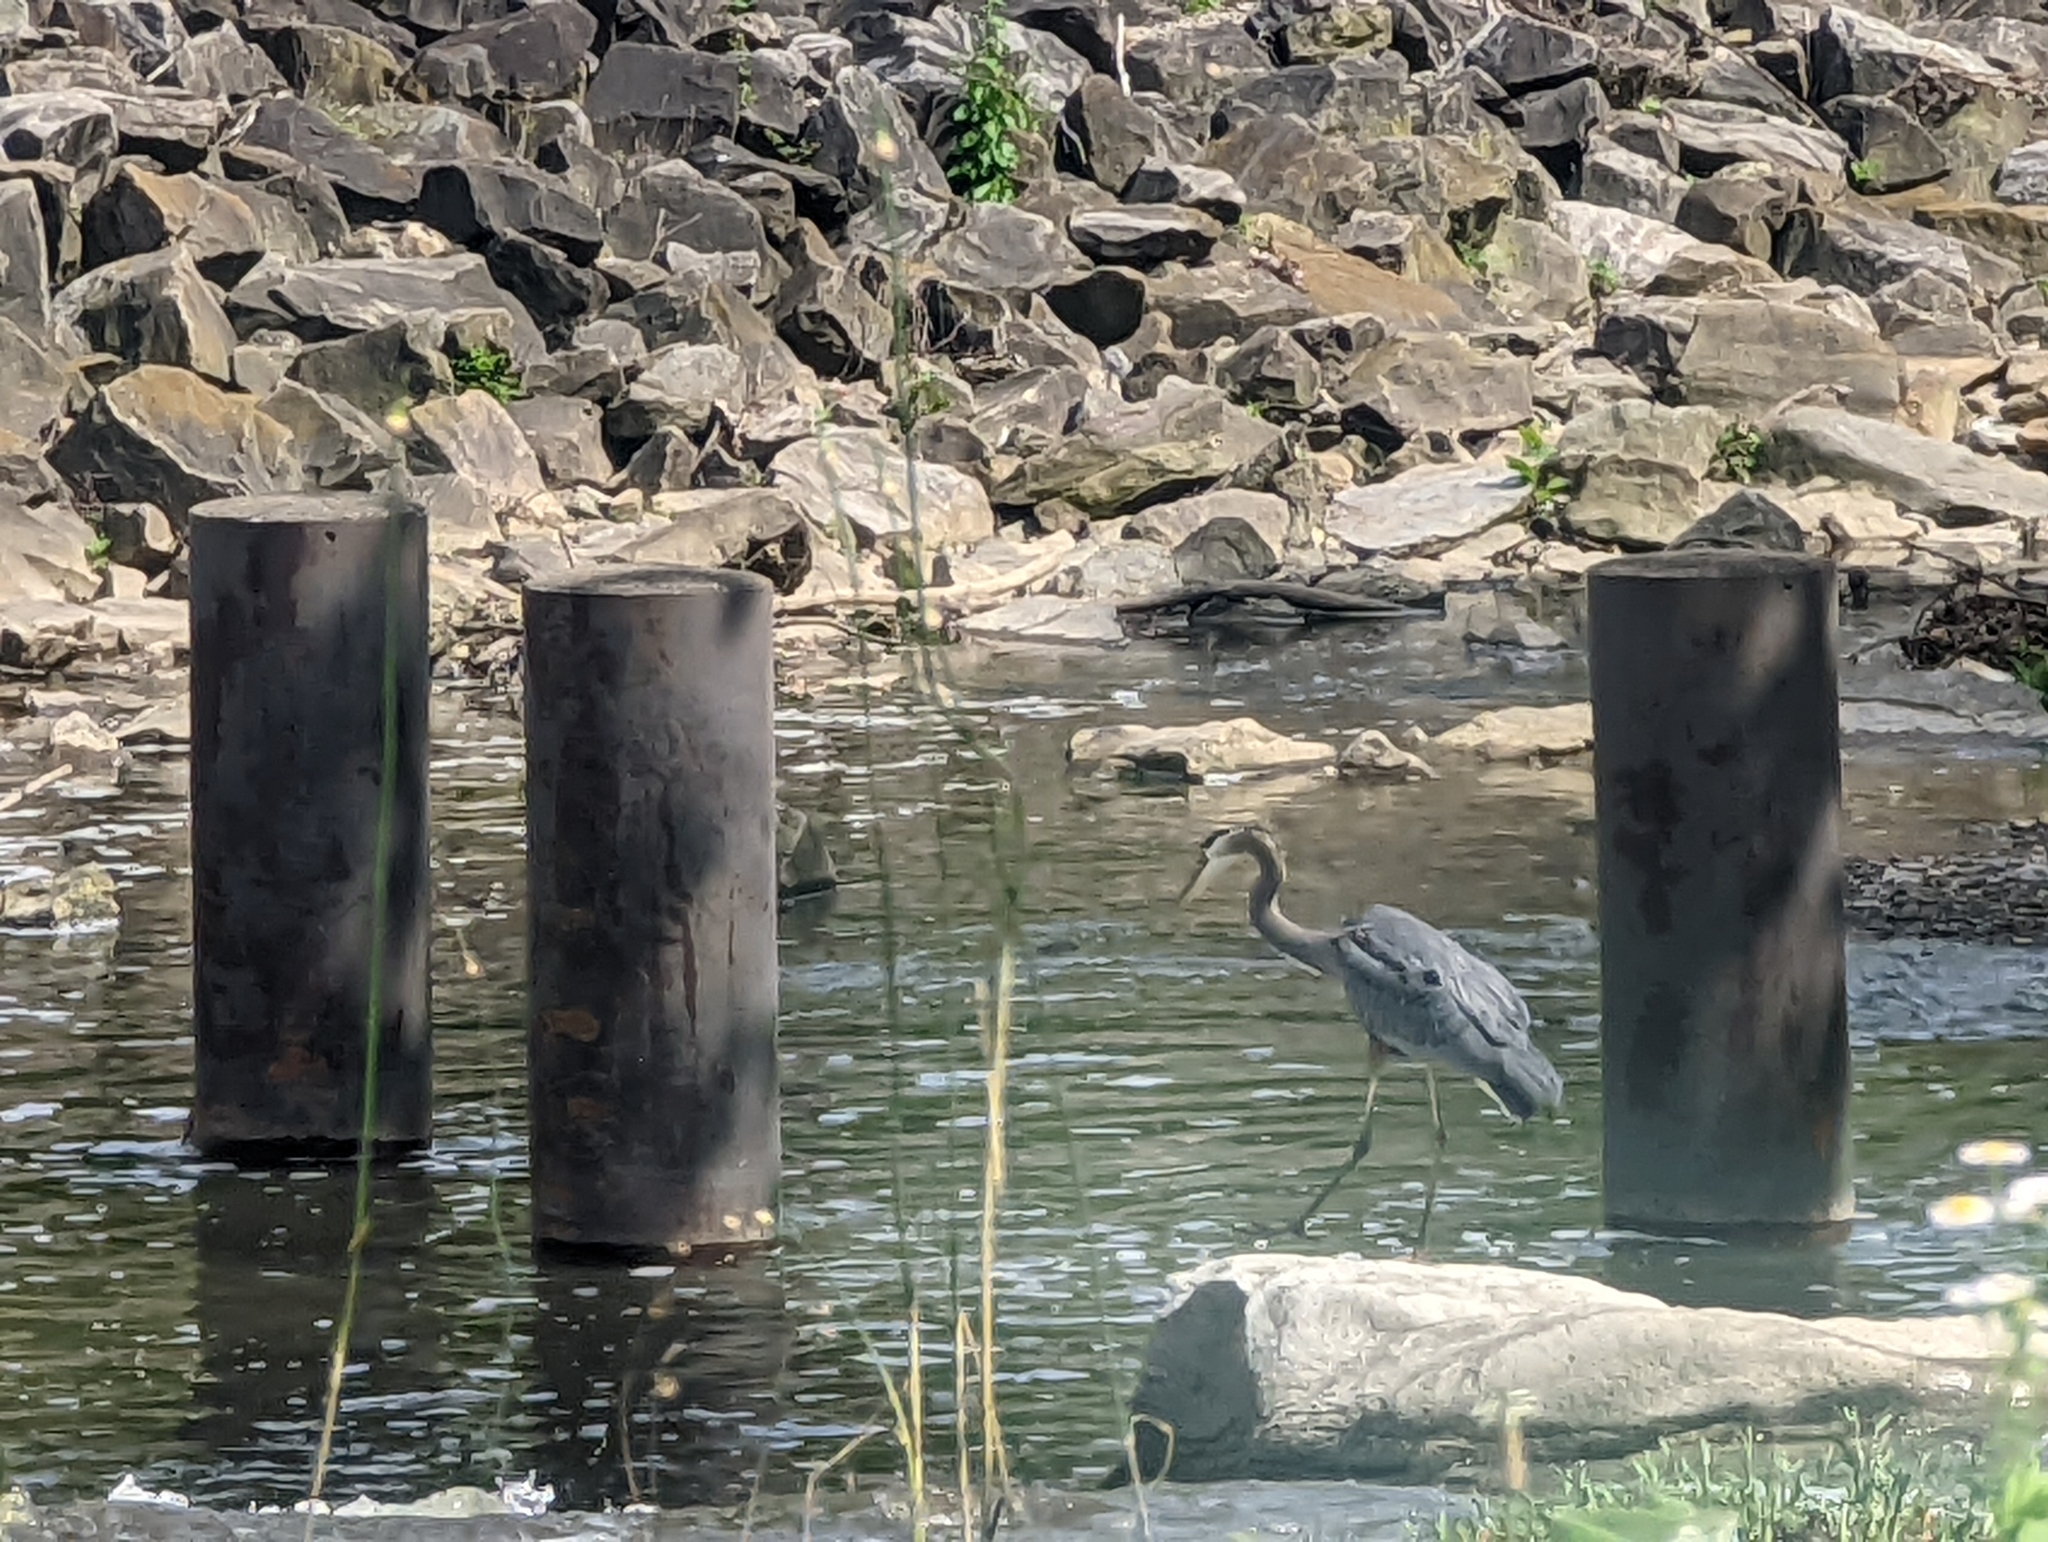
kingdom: Animalia
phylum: Chordata
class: Aves
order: Pelecaniformes
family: Ardeidae
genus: Ardea
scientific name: Ardea herodias
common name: Great blue heron
